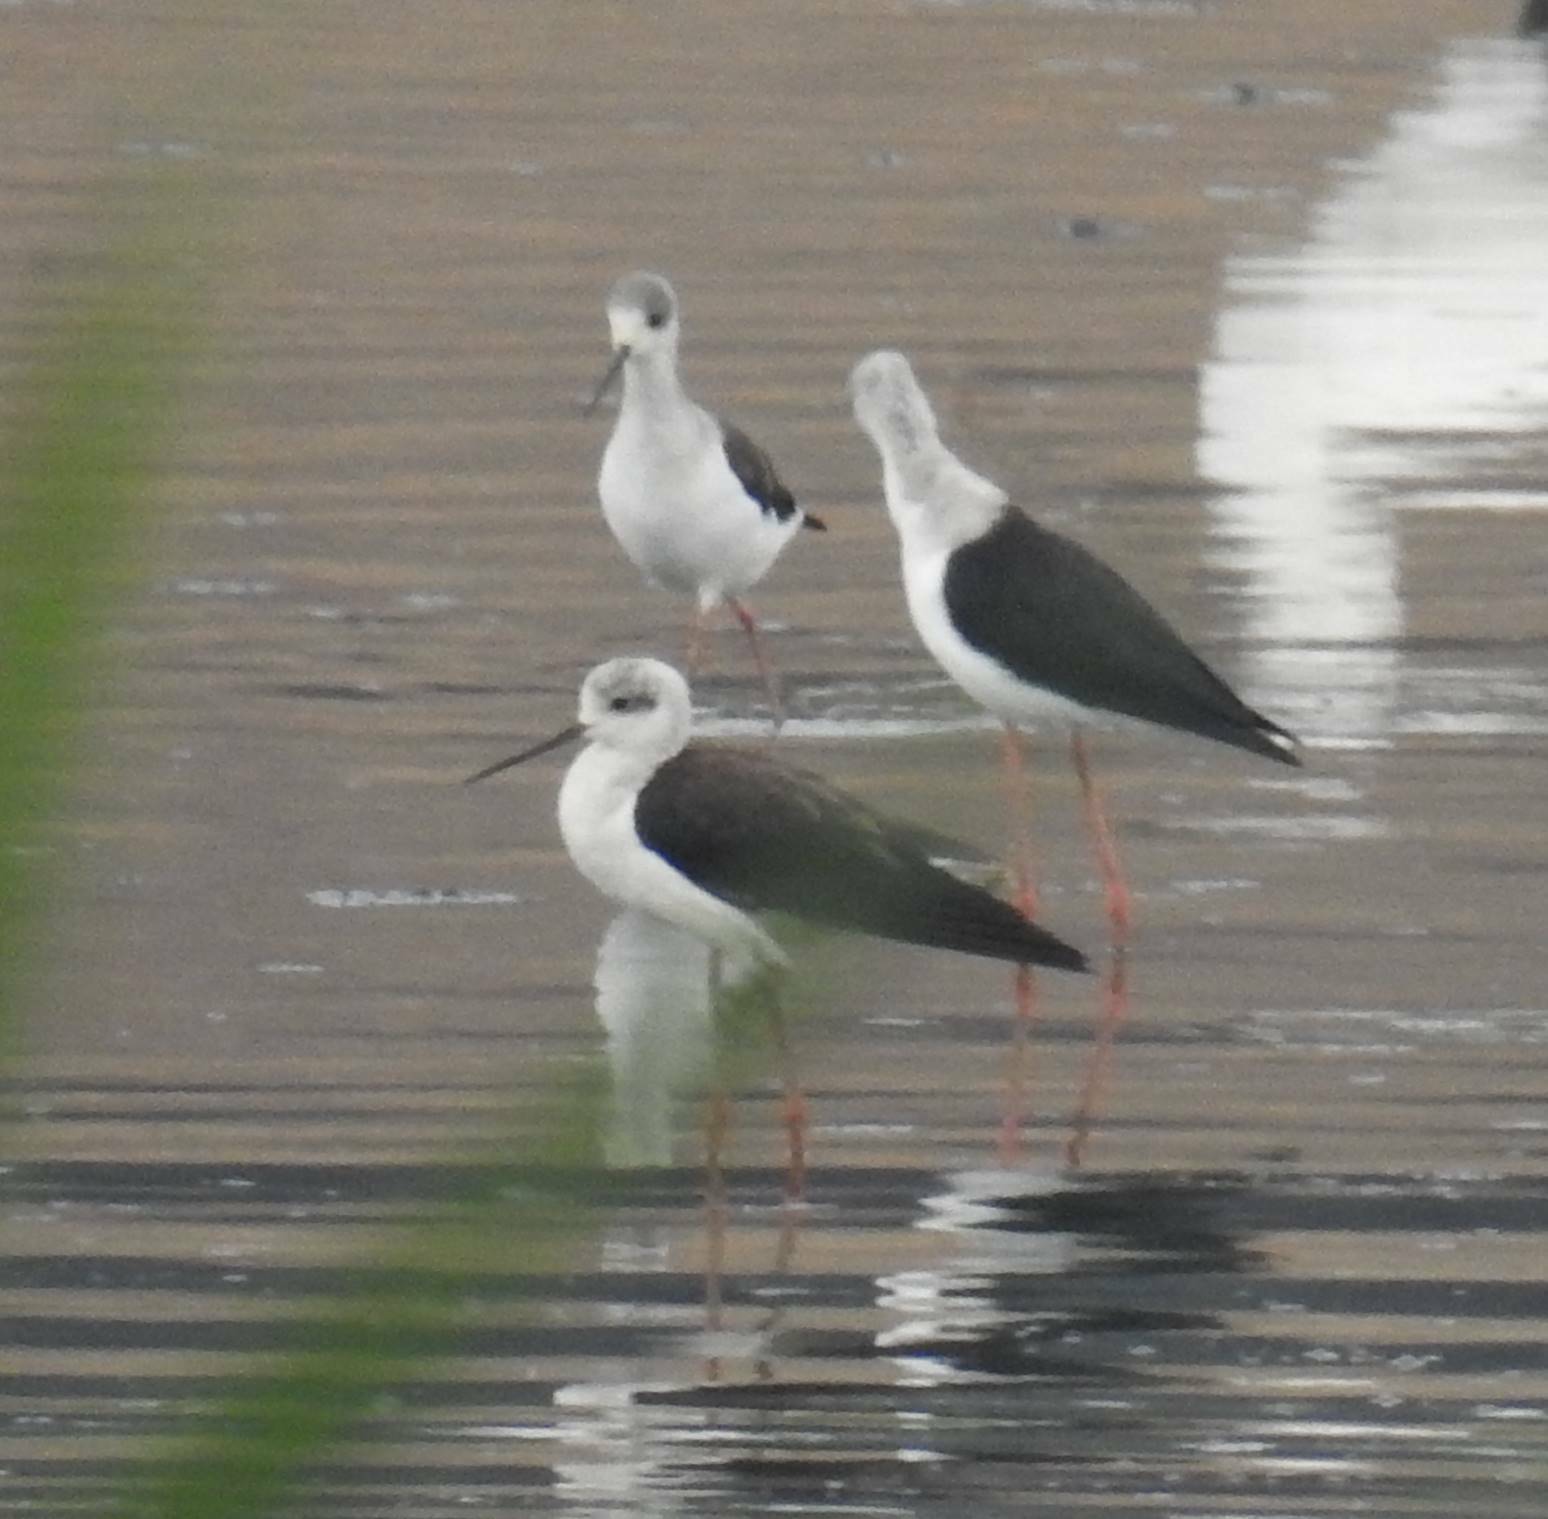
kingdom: Animalia
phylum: Chordata
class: Aves
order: Charadriiformes
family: Recurvirostridae
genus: Himantopus
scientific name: Himantopus himantopus
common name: Black-winged stilt
